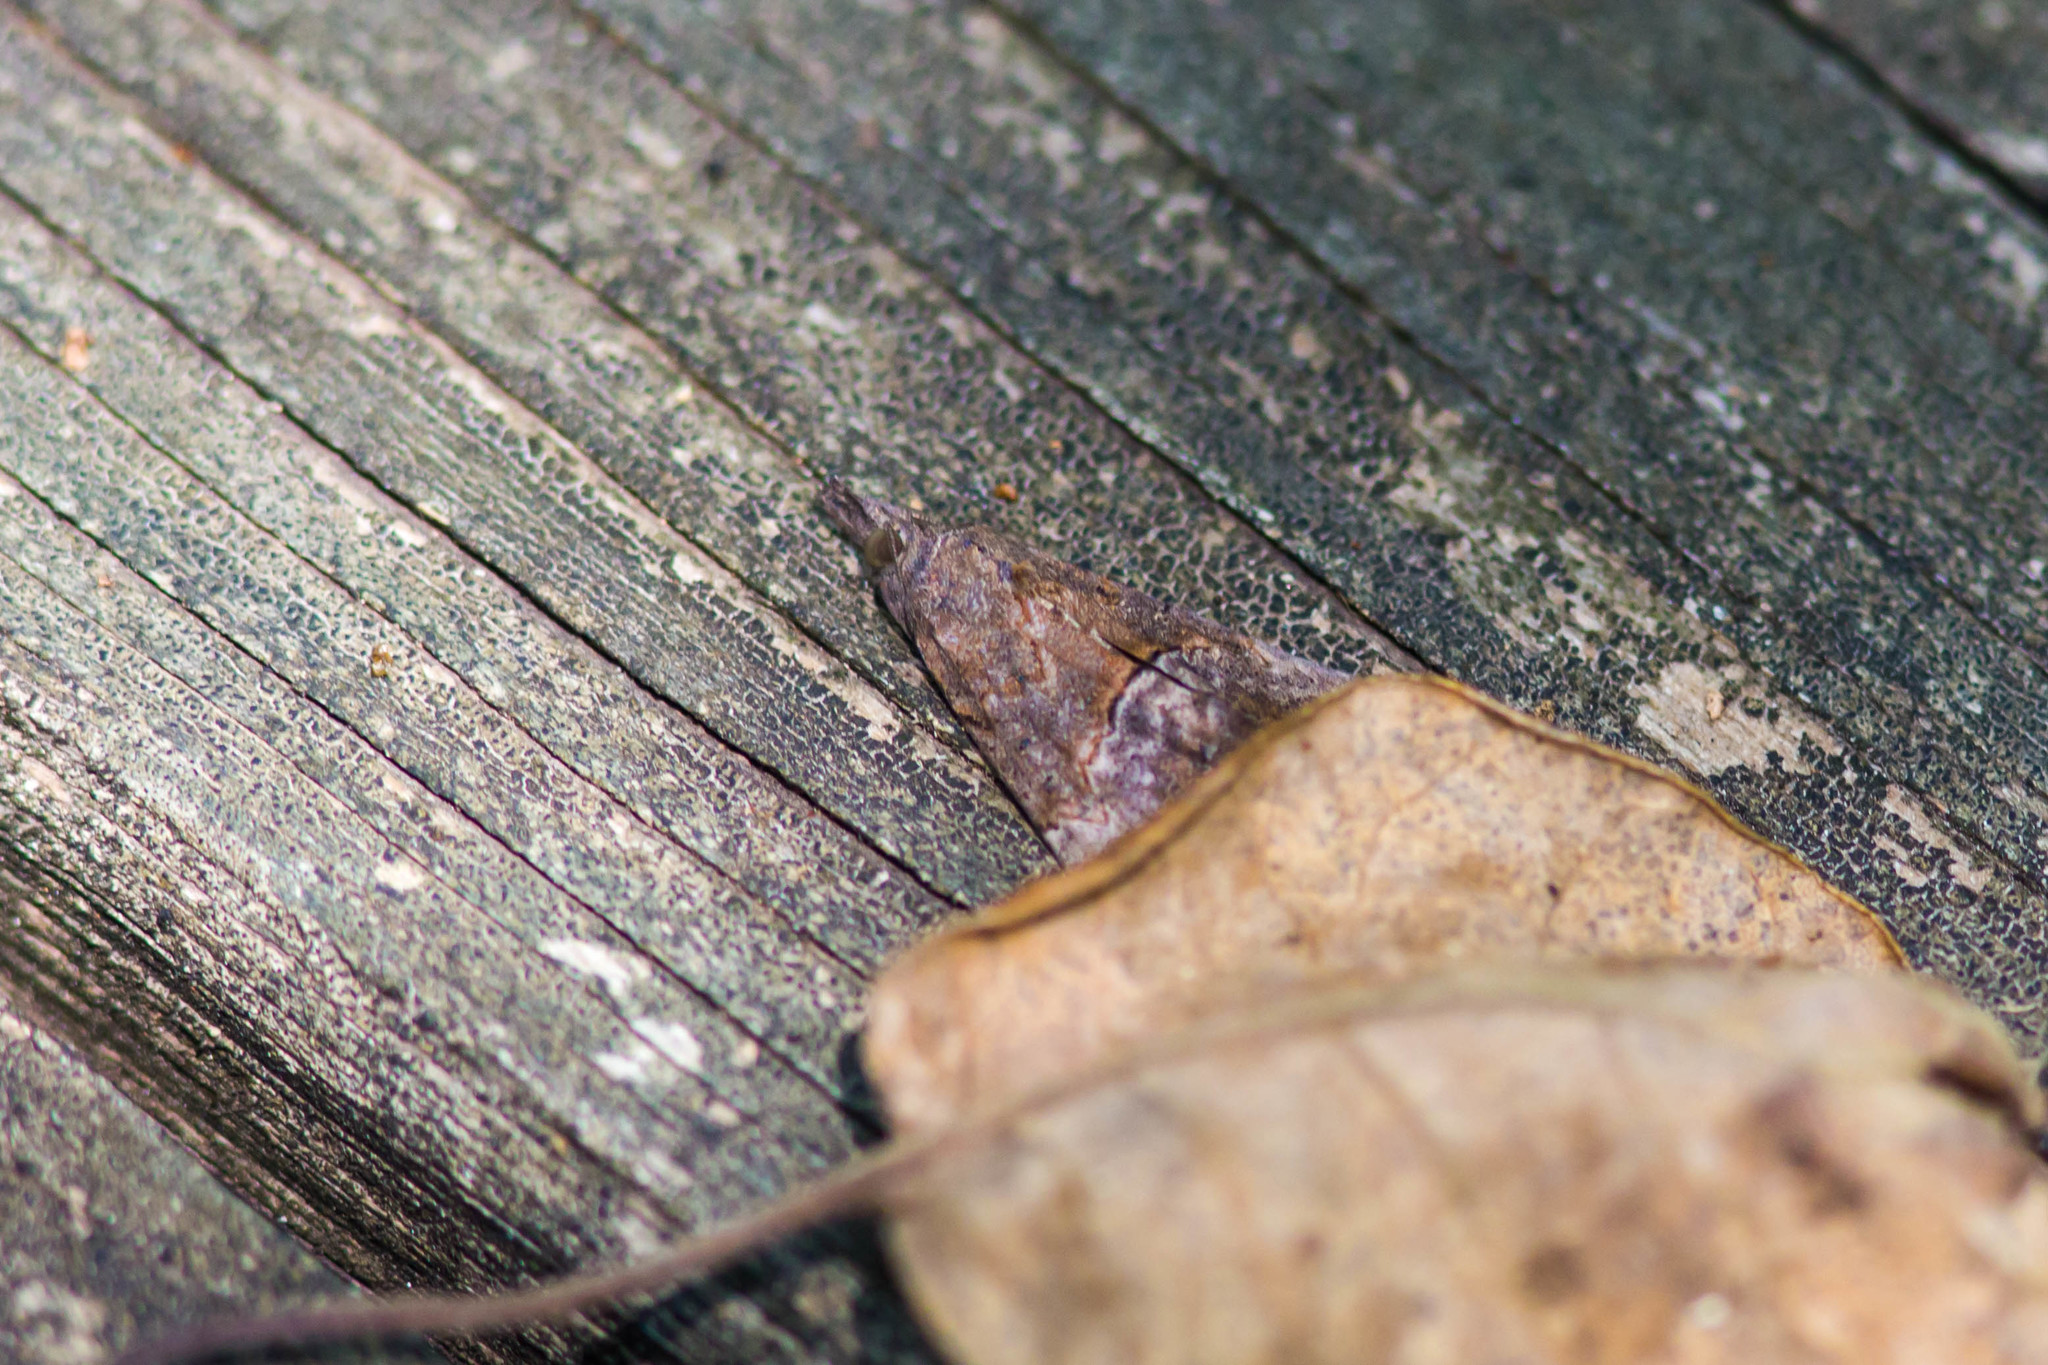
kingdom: Animalia
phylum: Arthropoda
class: Insecta
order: Lepidoptera
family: Erebidae
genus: Hypena
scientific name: Hypena scabra
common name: Green cloverworm
